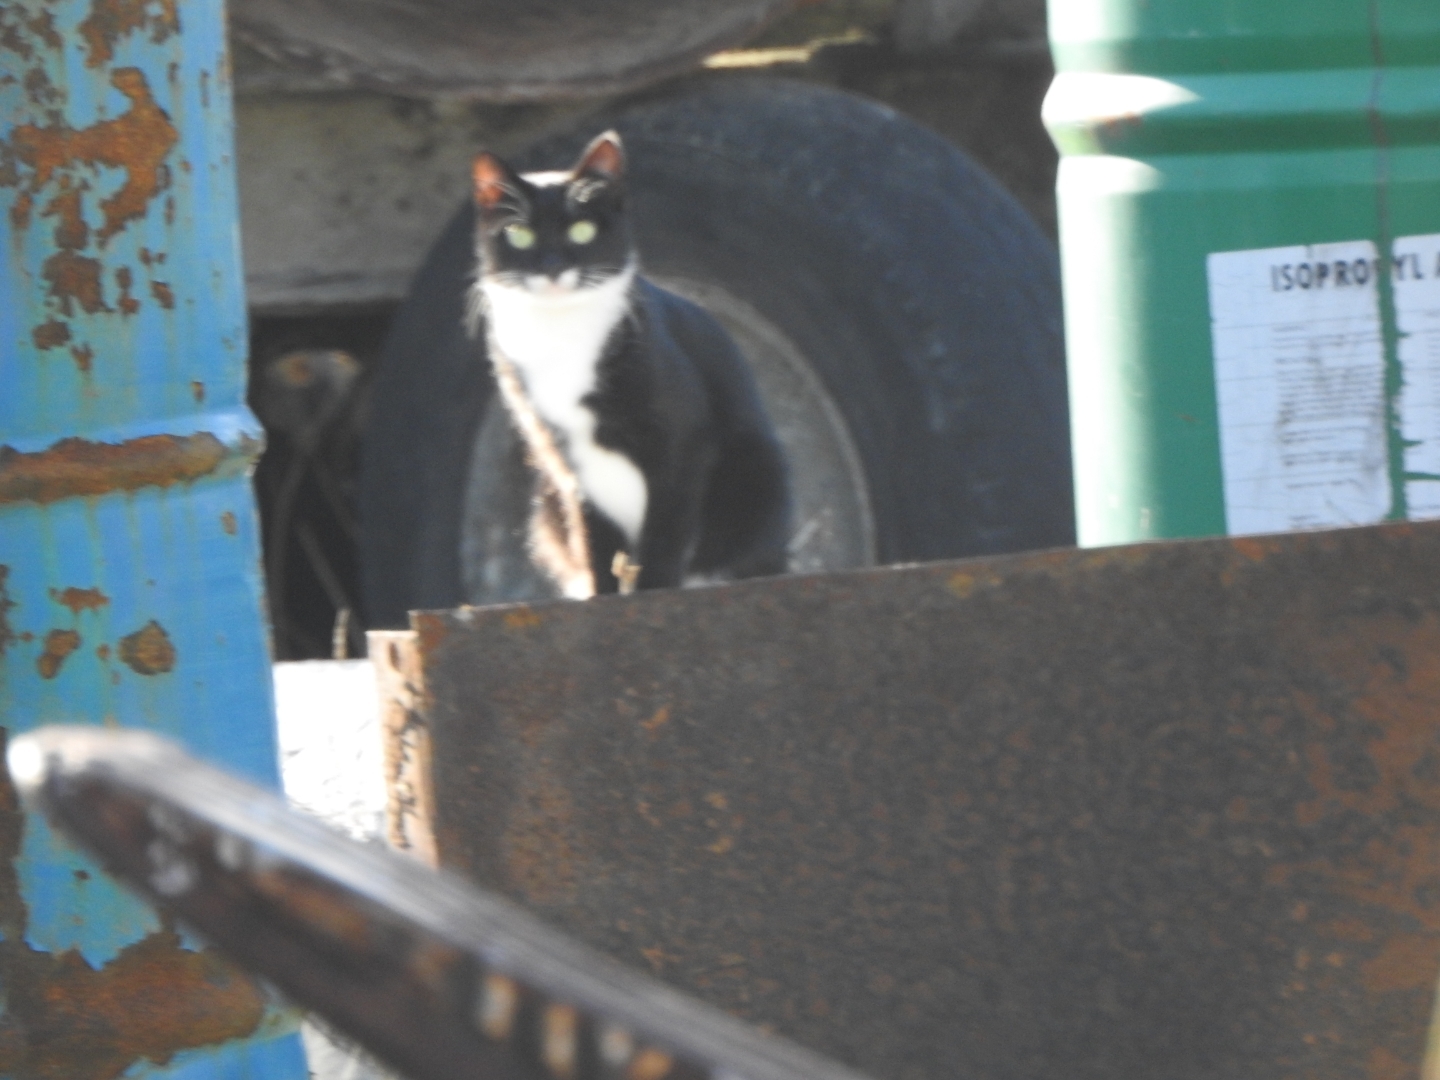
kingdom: Animalia
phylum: Chordata
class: Mammalia
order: Carnivora
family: Felidae
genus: Felis
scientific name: Felis catus
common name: Domestic cat
